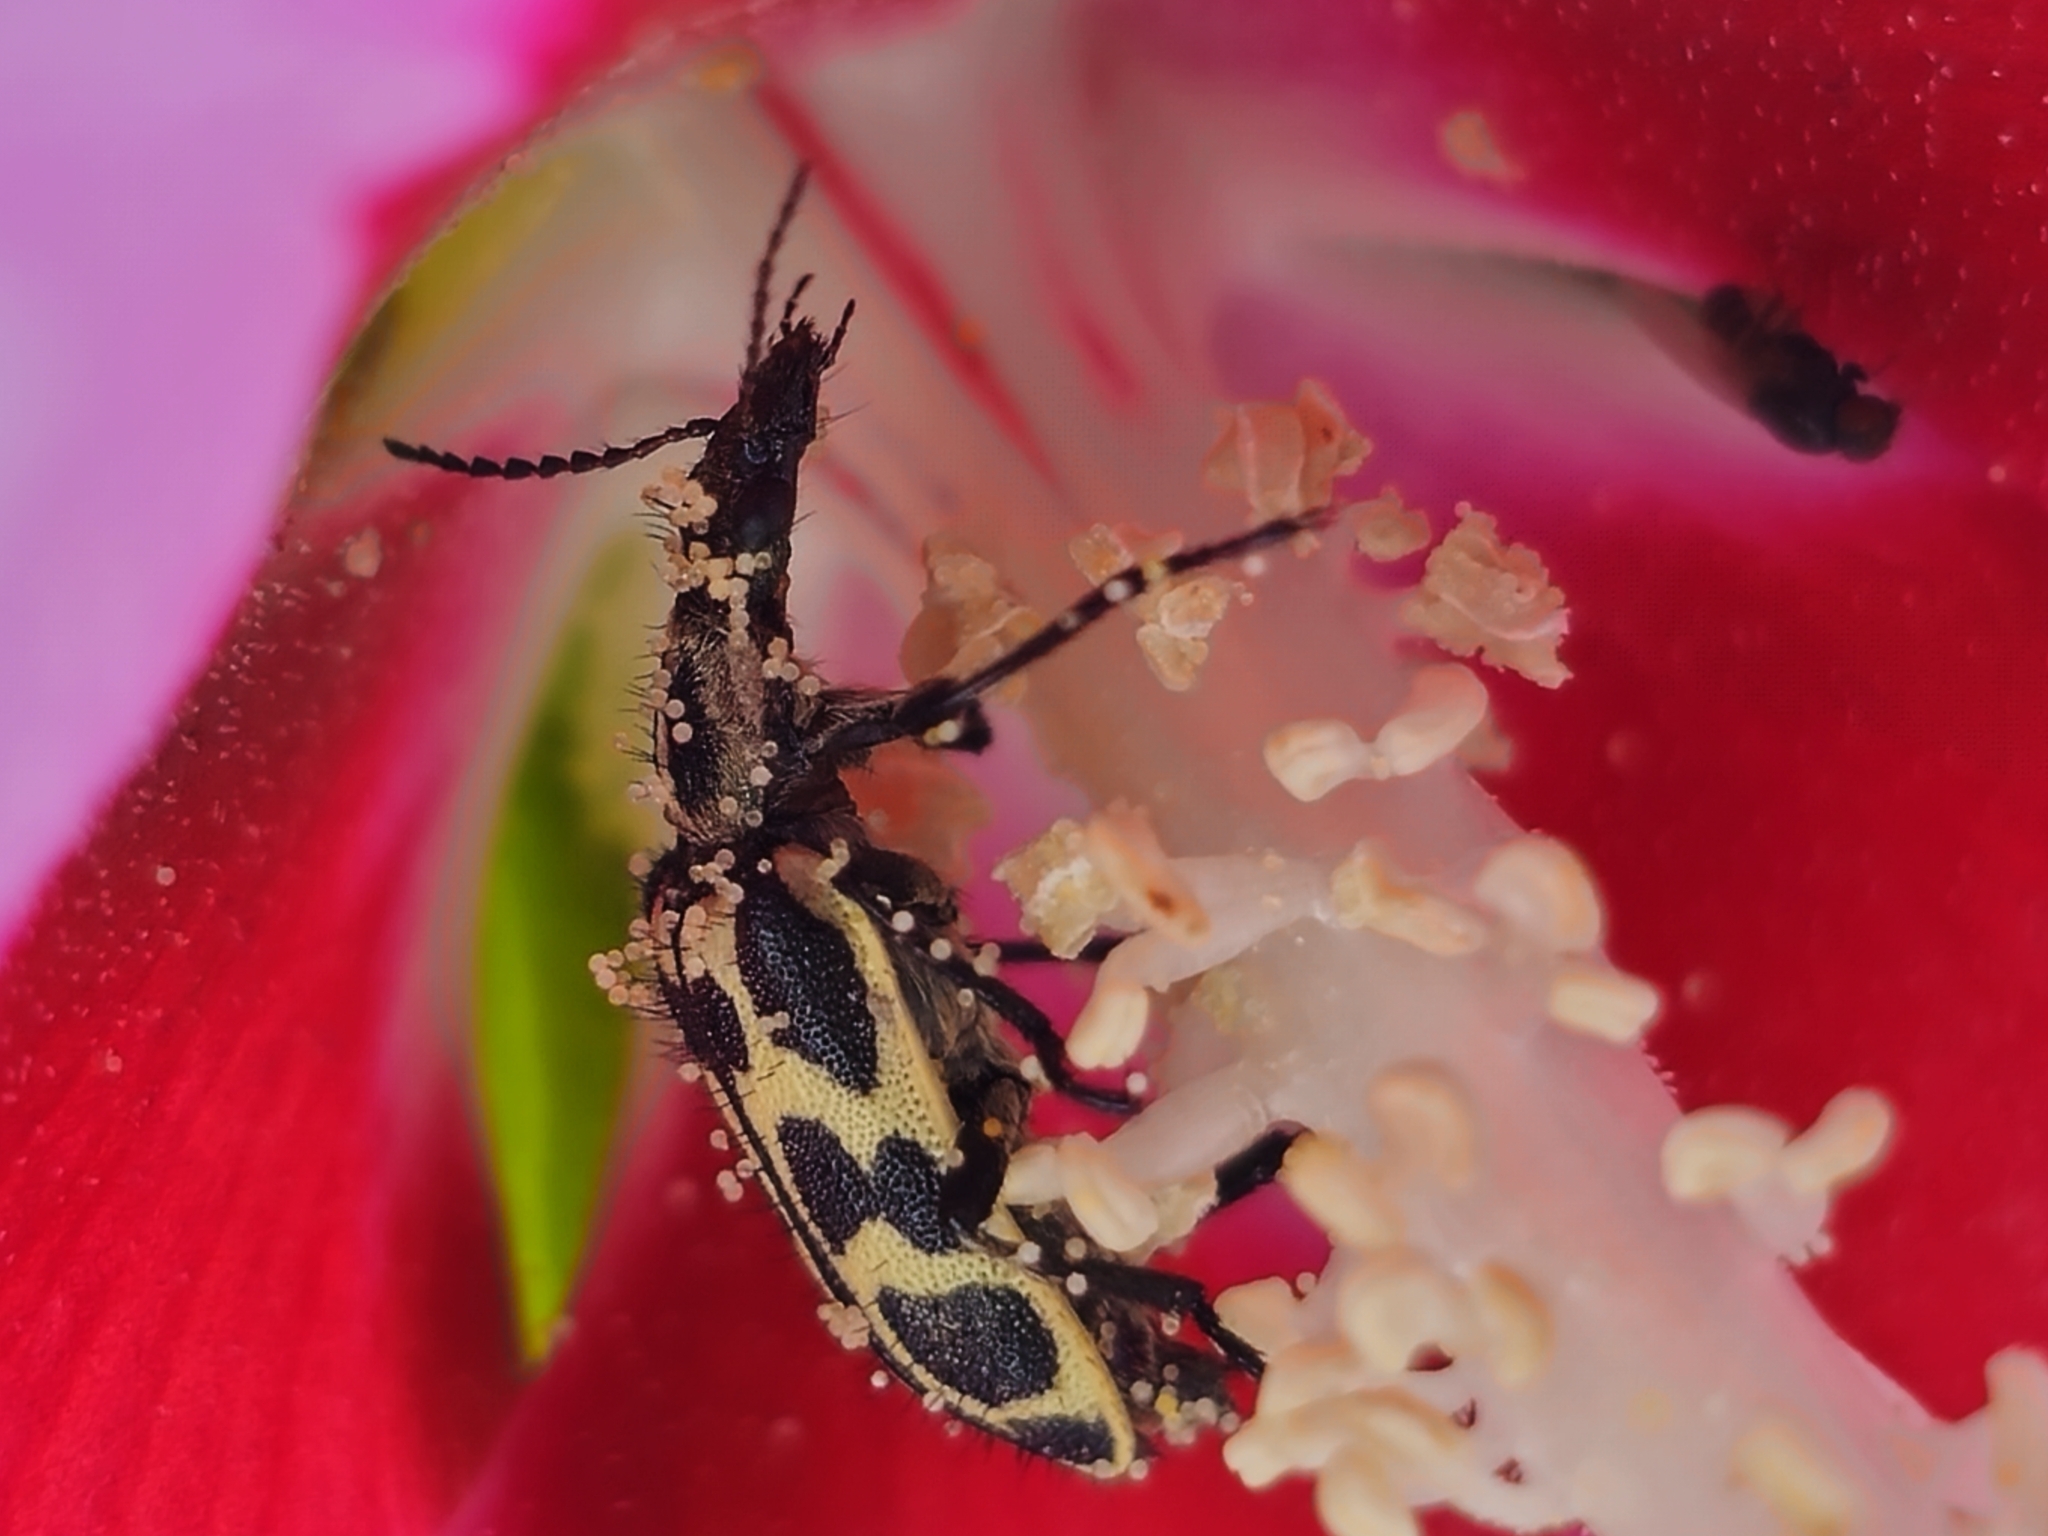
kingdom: Animalia
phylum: Arthropoda
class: Insecta
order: Coleoptera
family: Melyridae
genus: Astylus
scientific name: Astylus atromaculatus
